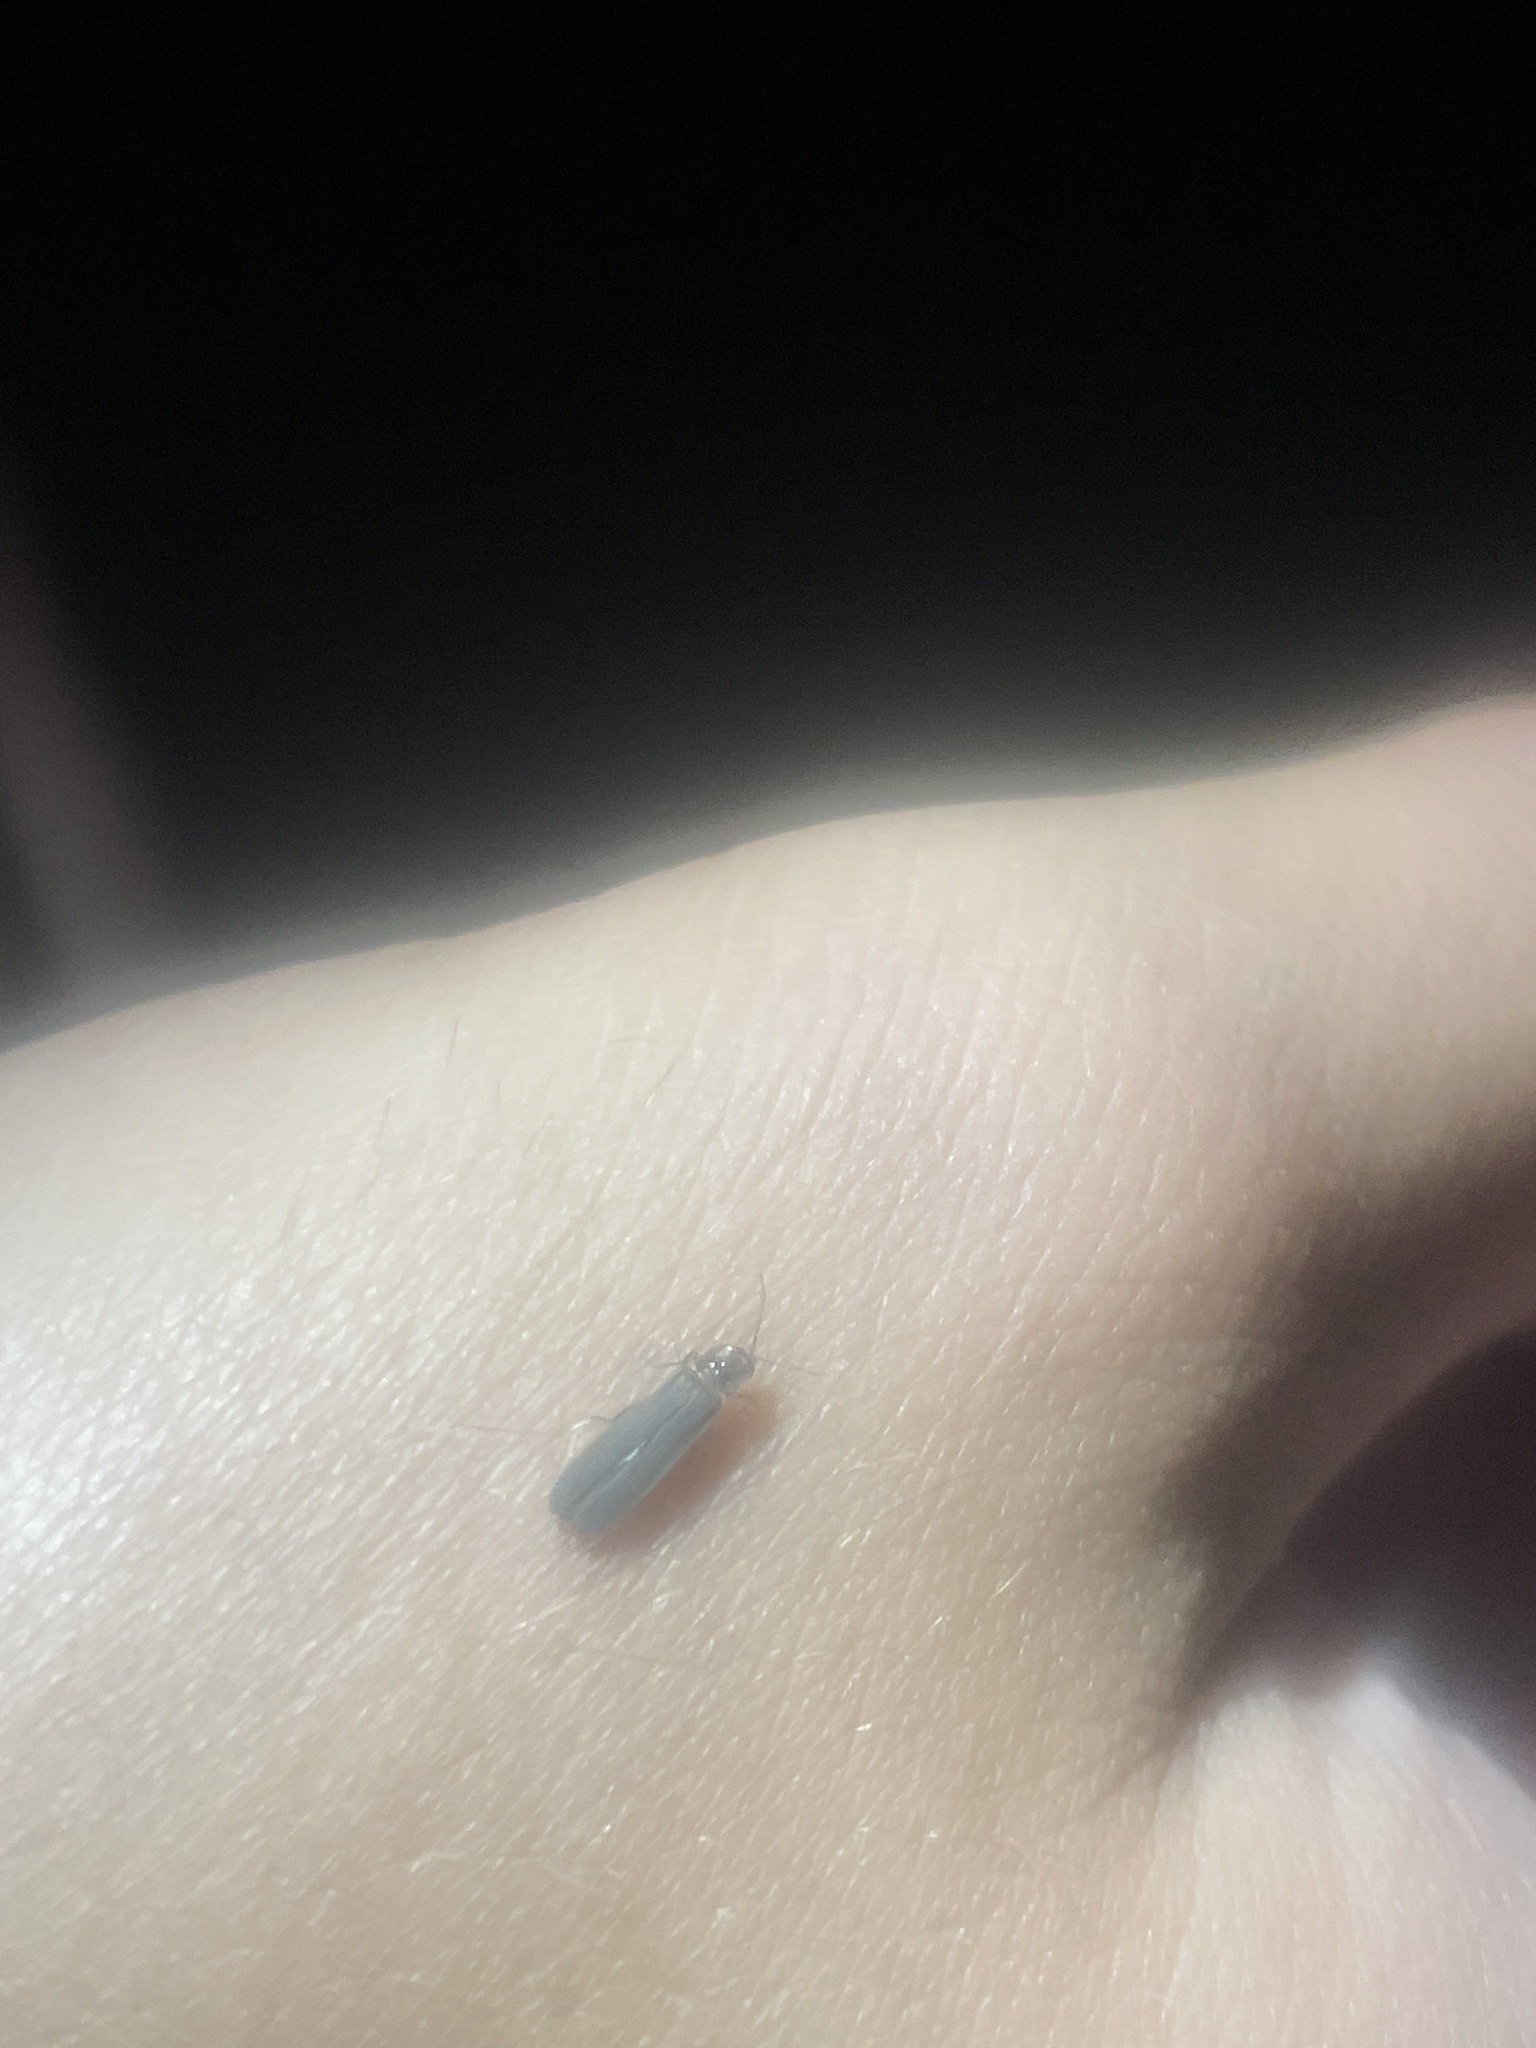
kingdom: Animalia
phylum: Arthropoda
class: Insecta
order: Coleoptera
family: Lampyridae
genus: Phausis
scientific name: Phausis reticulata
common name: Blue ghost firefly
